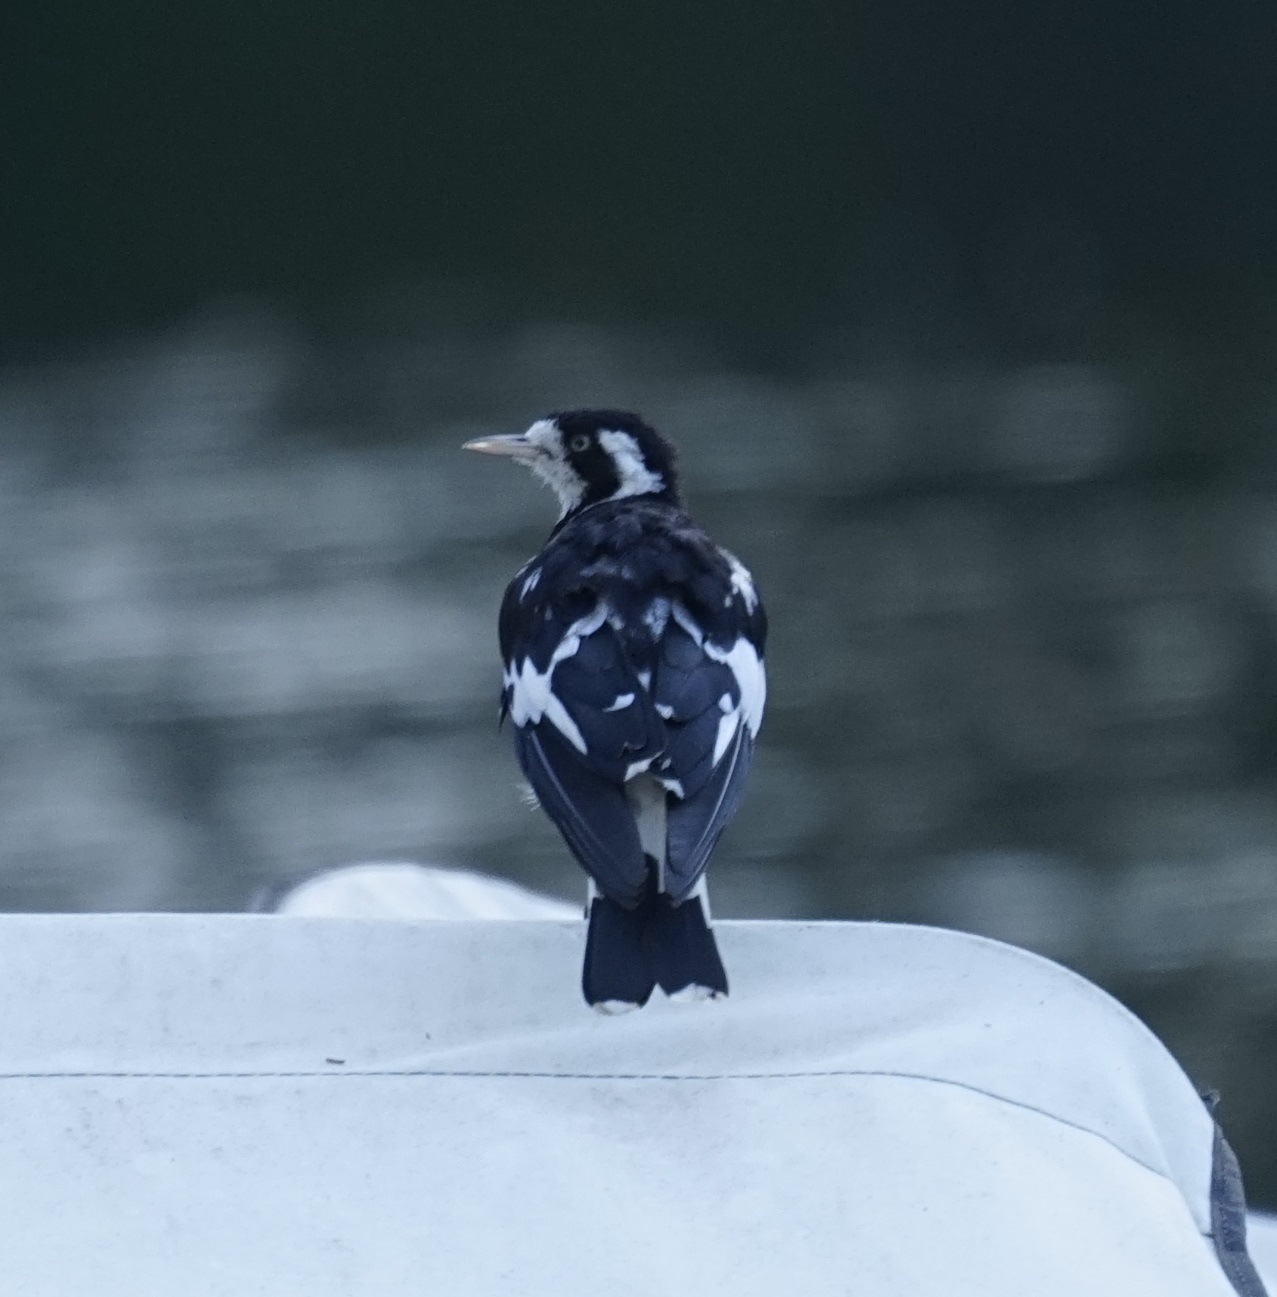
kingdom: Animalia
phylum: Chordata
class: Aves
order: Passeriformes
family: Monarchidae
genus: Grallina
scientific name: Grallina cyanoleuca
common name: Magpie-lark
